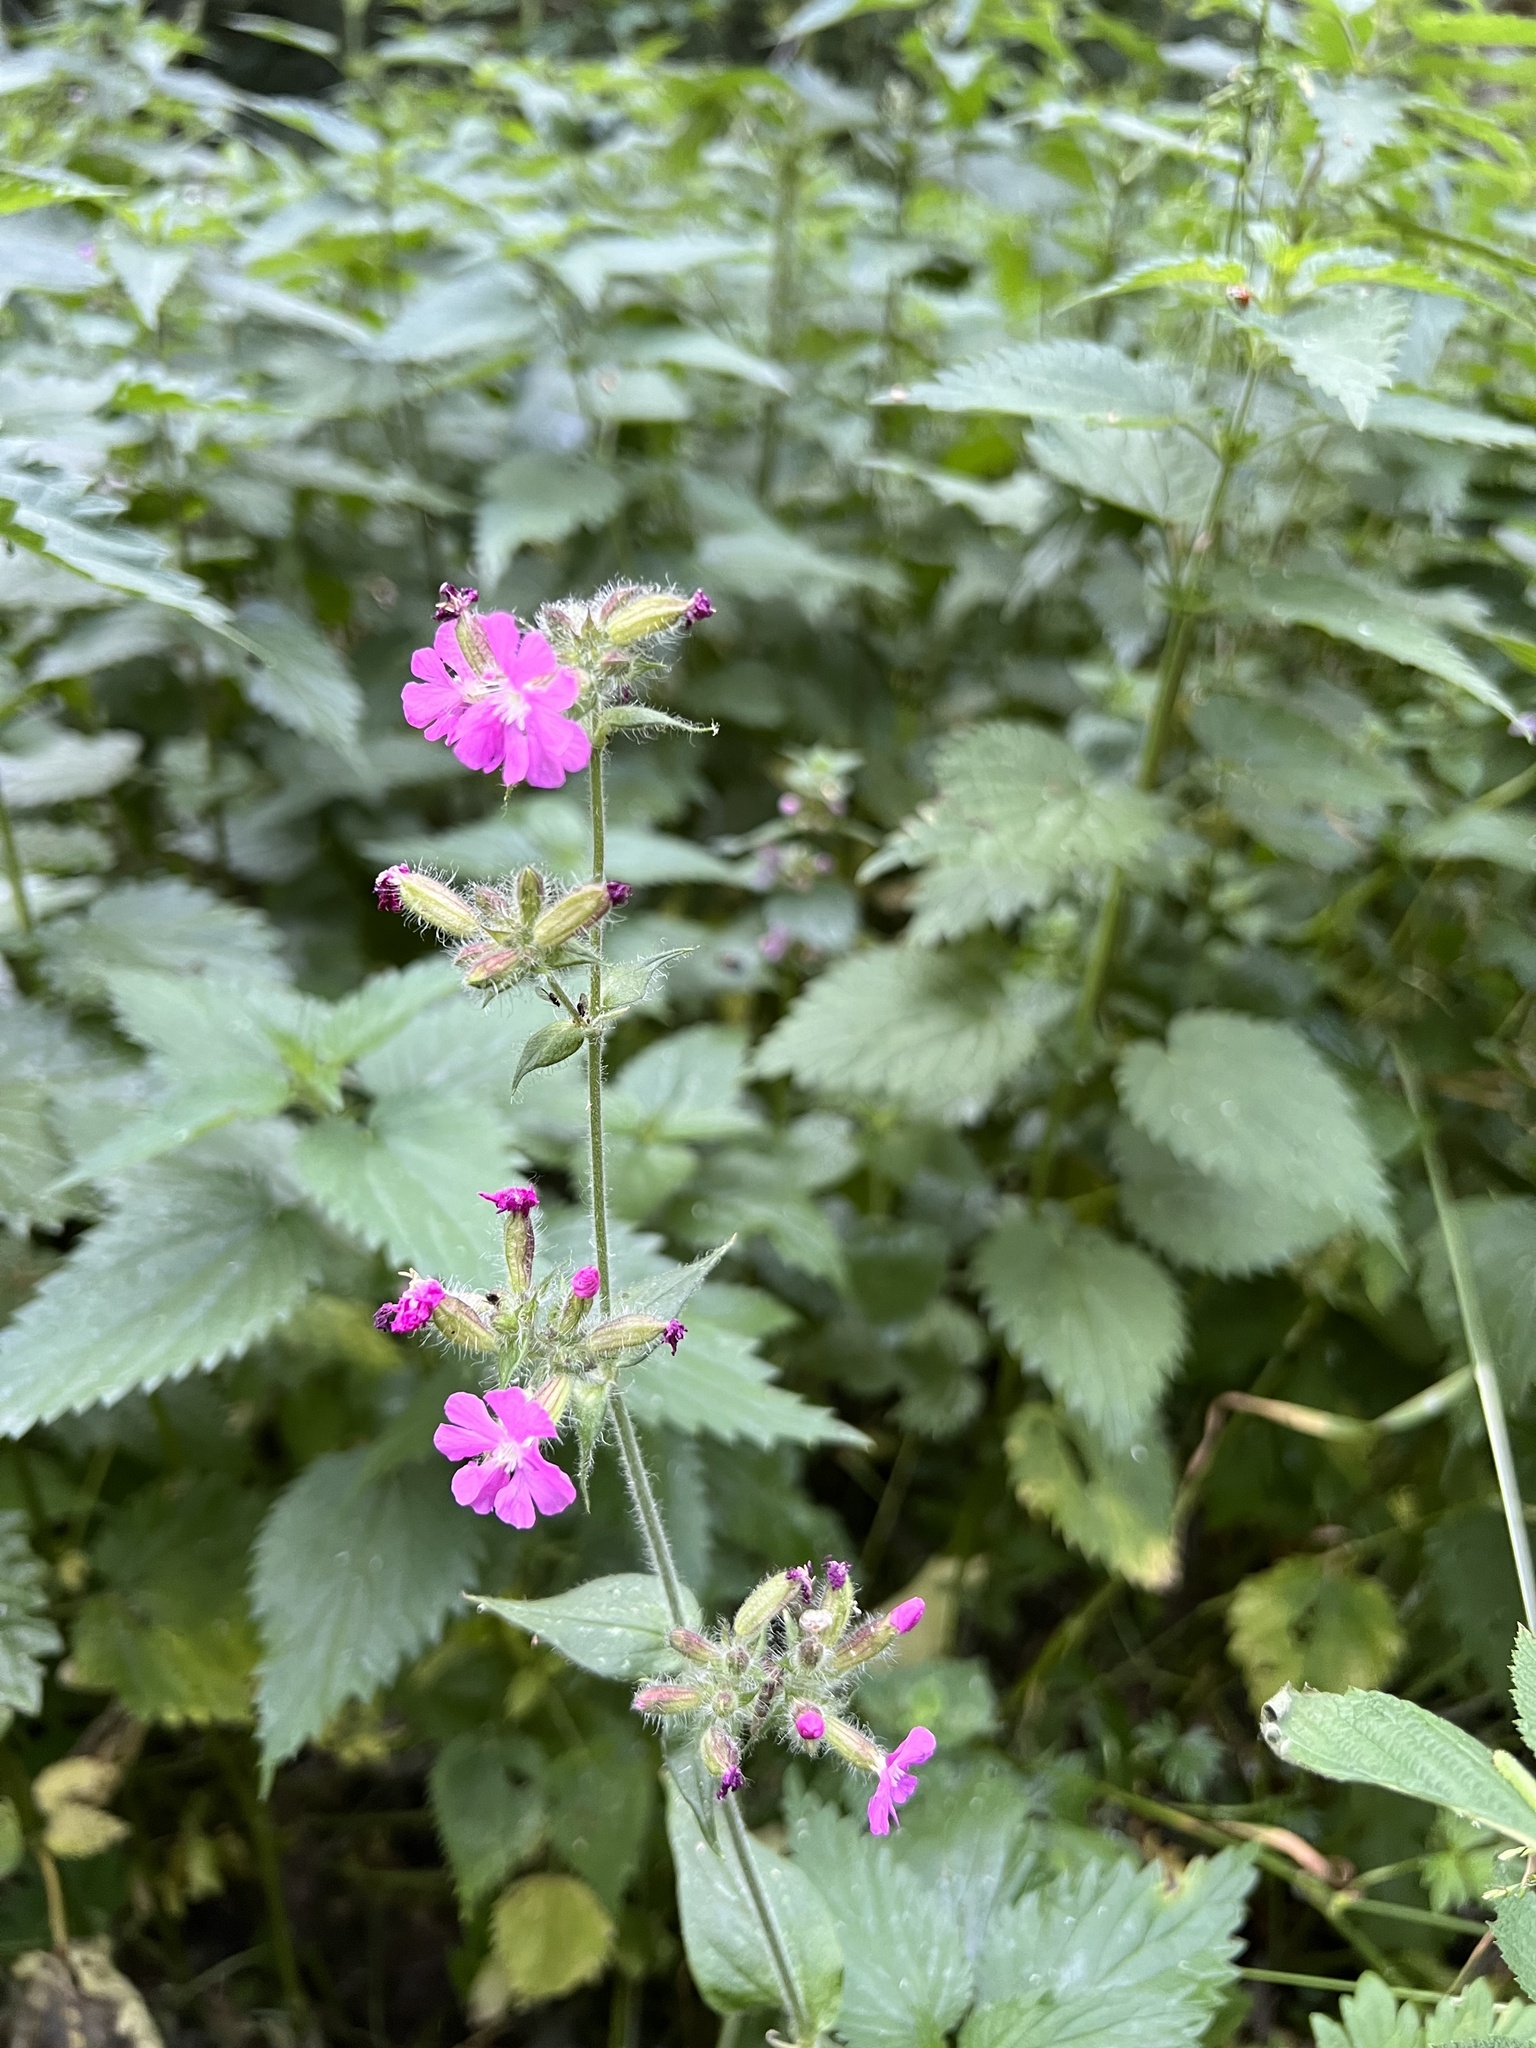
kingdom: Plantae
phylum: Tracheophyta
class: Magnoliopsida
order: Caryophyllales
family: Caryophyllaceae
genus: Silene
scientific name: Silene dioica
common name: Red campion
